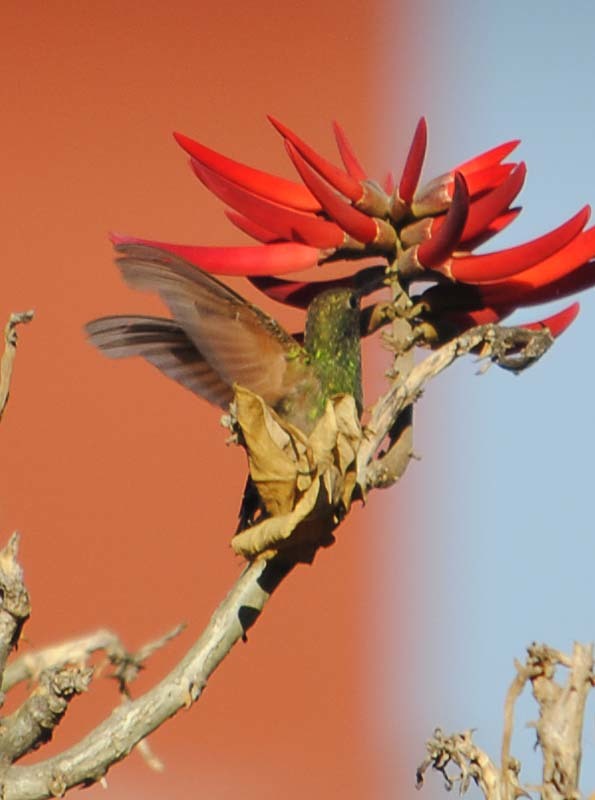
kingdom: Animalia
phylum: Chordata
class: Aves
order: Apodiformes
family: Trochilidae
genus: Saucerottia
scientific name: Saucerottia beryllina
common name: Berylline hummingbird
